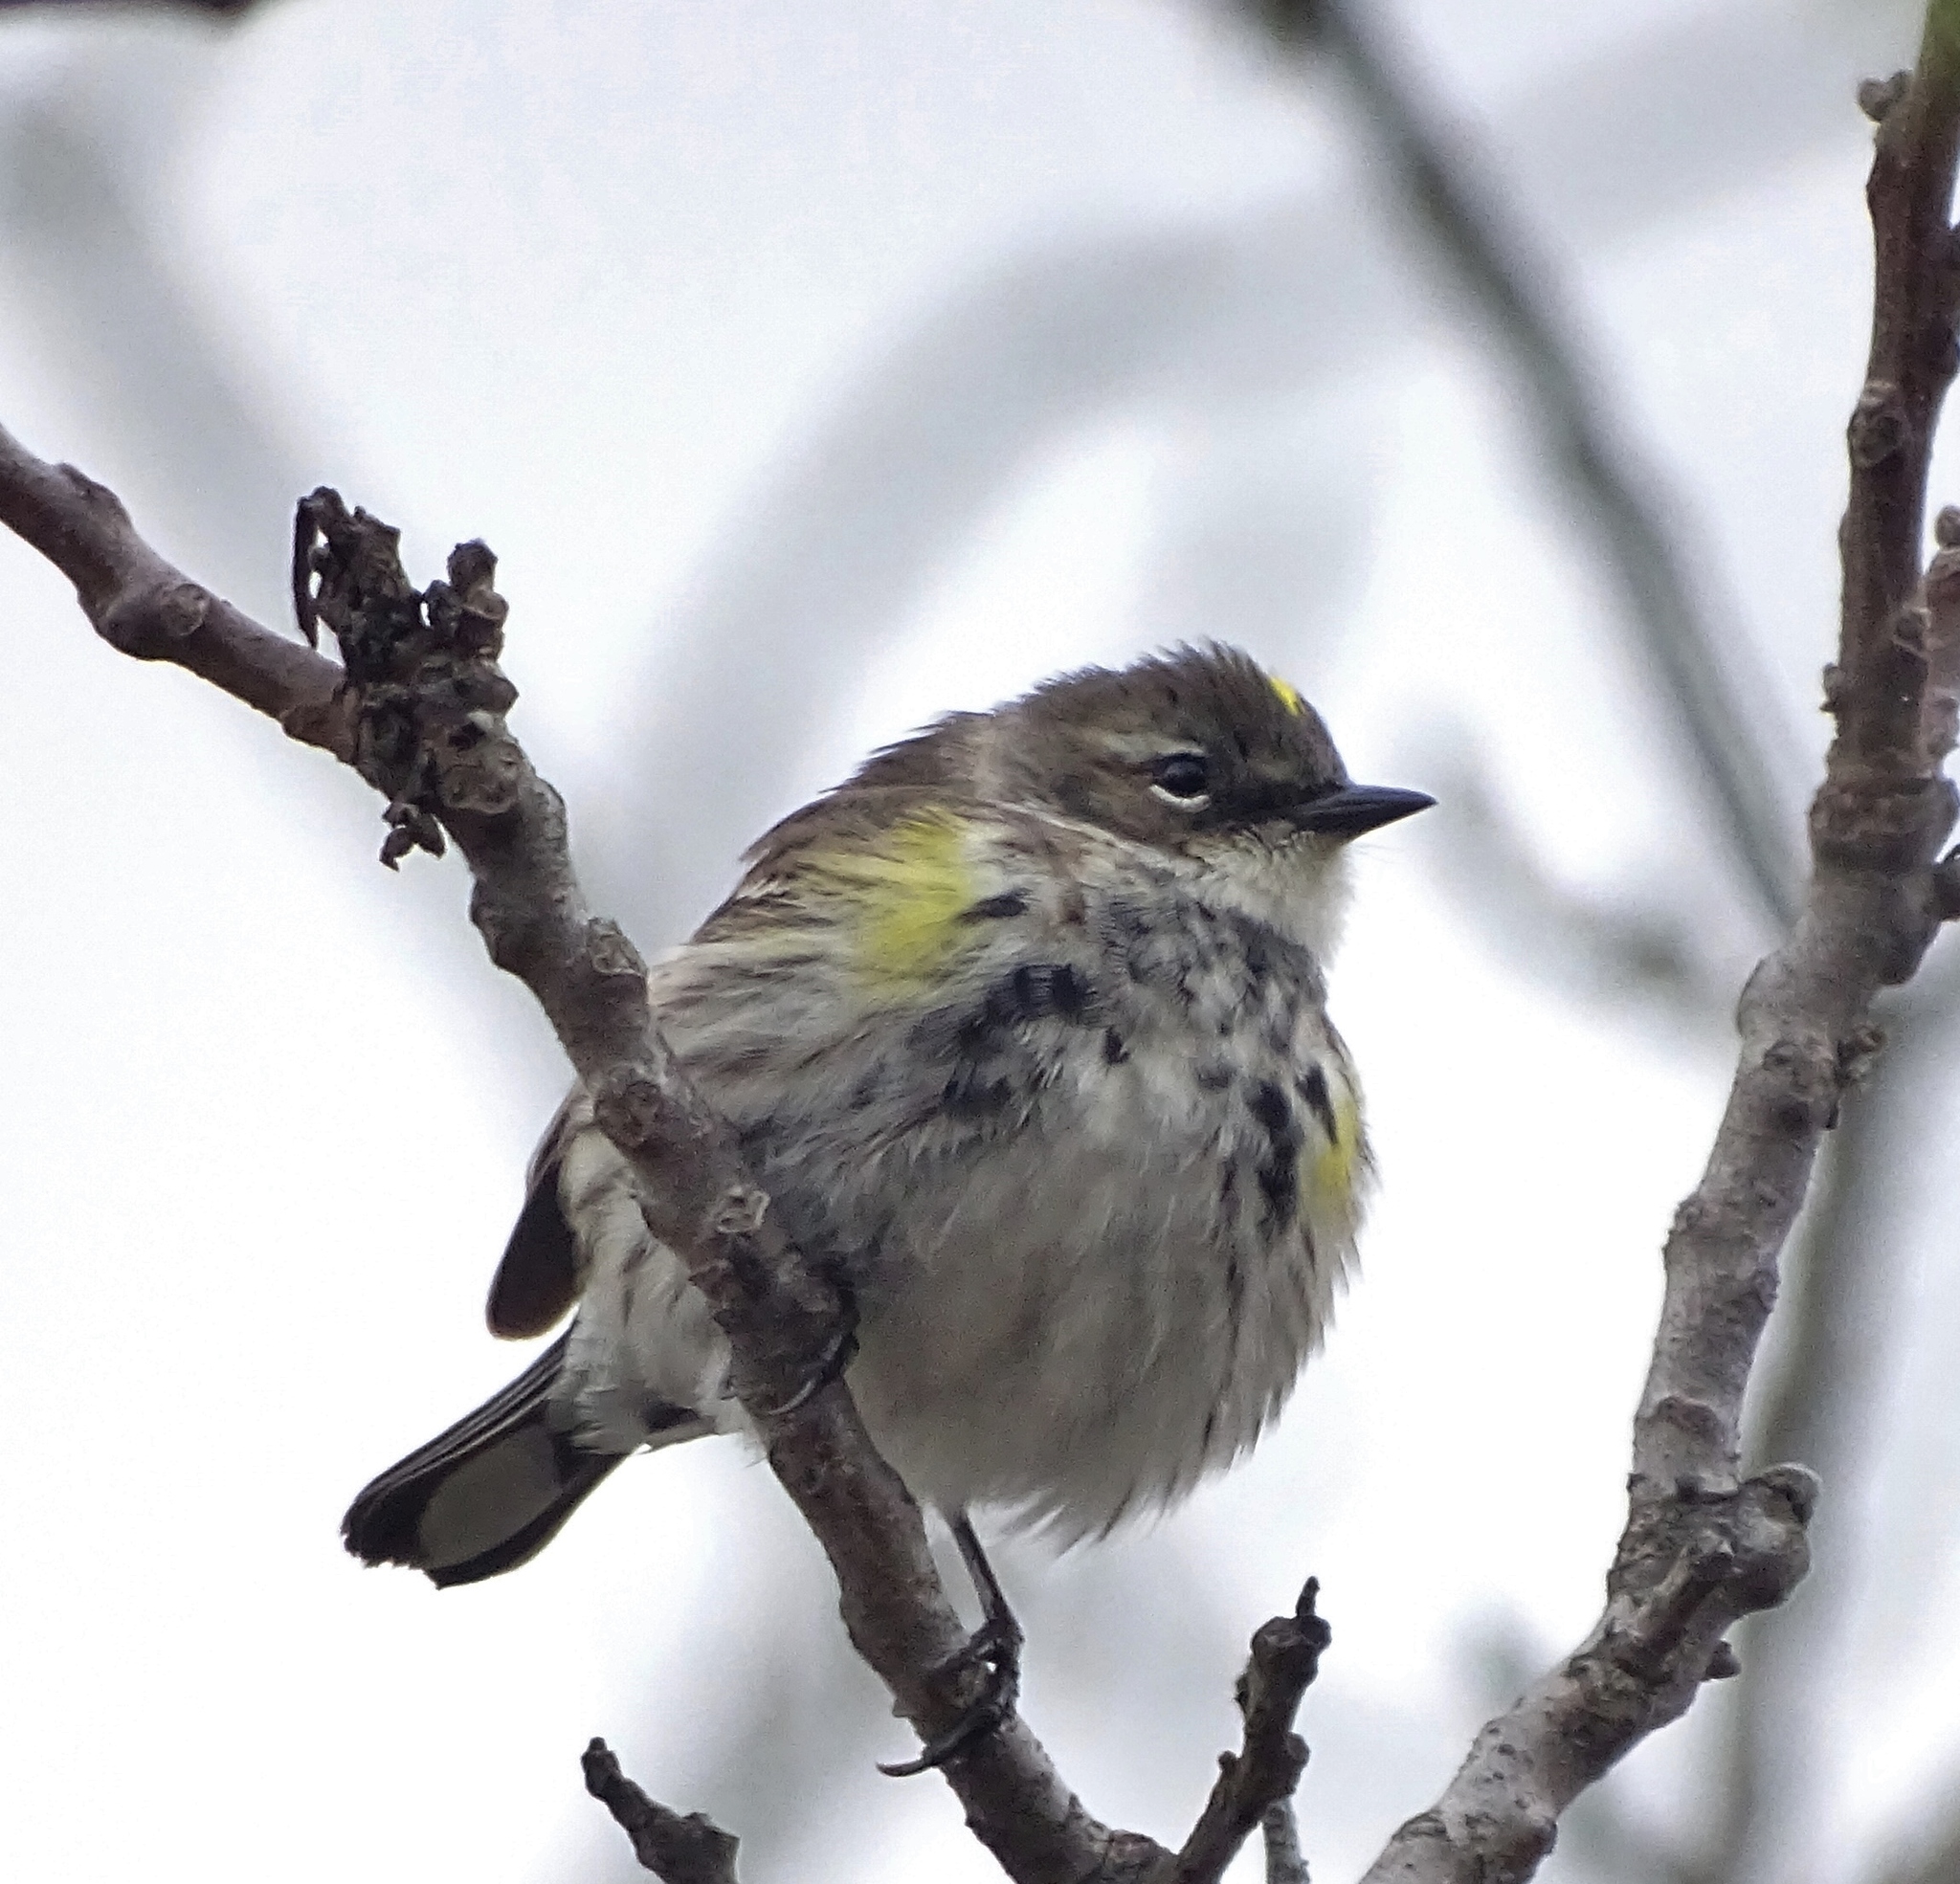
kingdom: Animalia
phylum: Chordata
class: Aves
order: Passeriformes
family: Parulidae
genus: Setophaga
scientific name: Setophaga coronata
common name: Myrtle warbler
